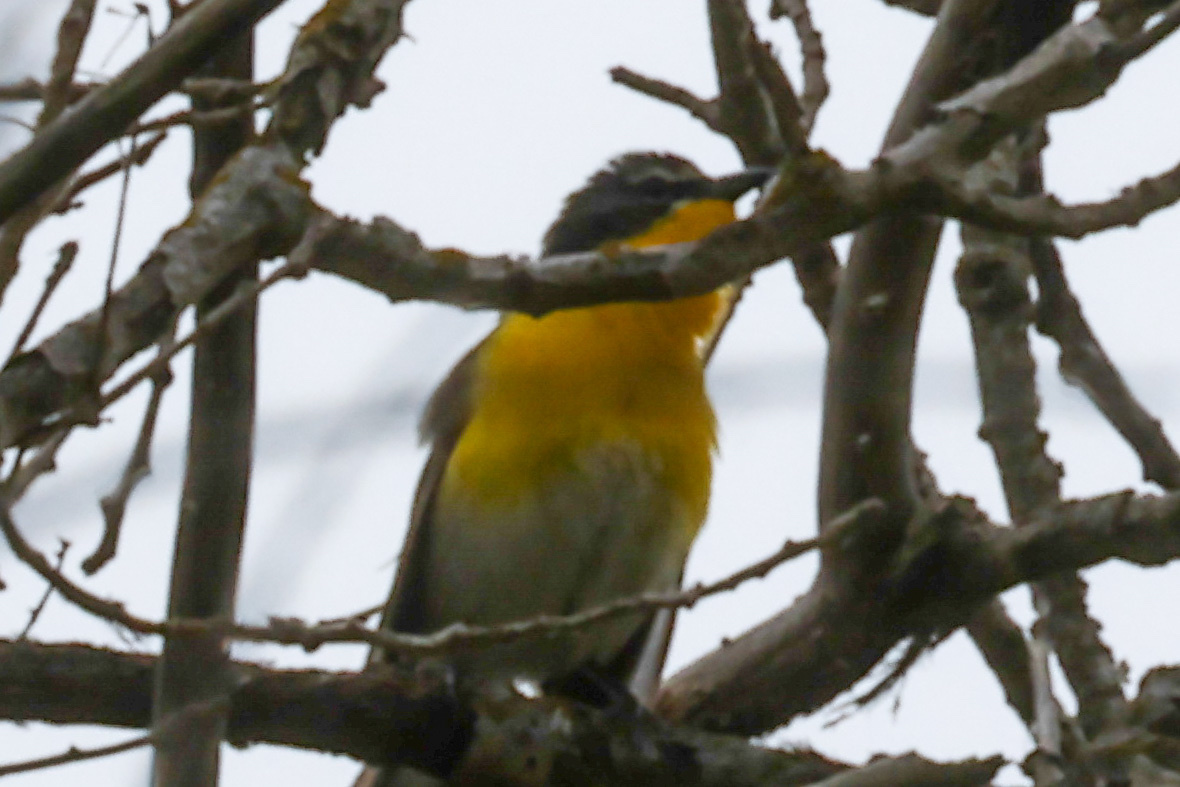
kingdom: Animalia
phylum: Chordata
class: Aves
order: Passeriformes
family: Parulidae
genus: Icteria
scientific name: Icteria virens
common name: Yellow-breasted chat
